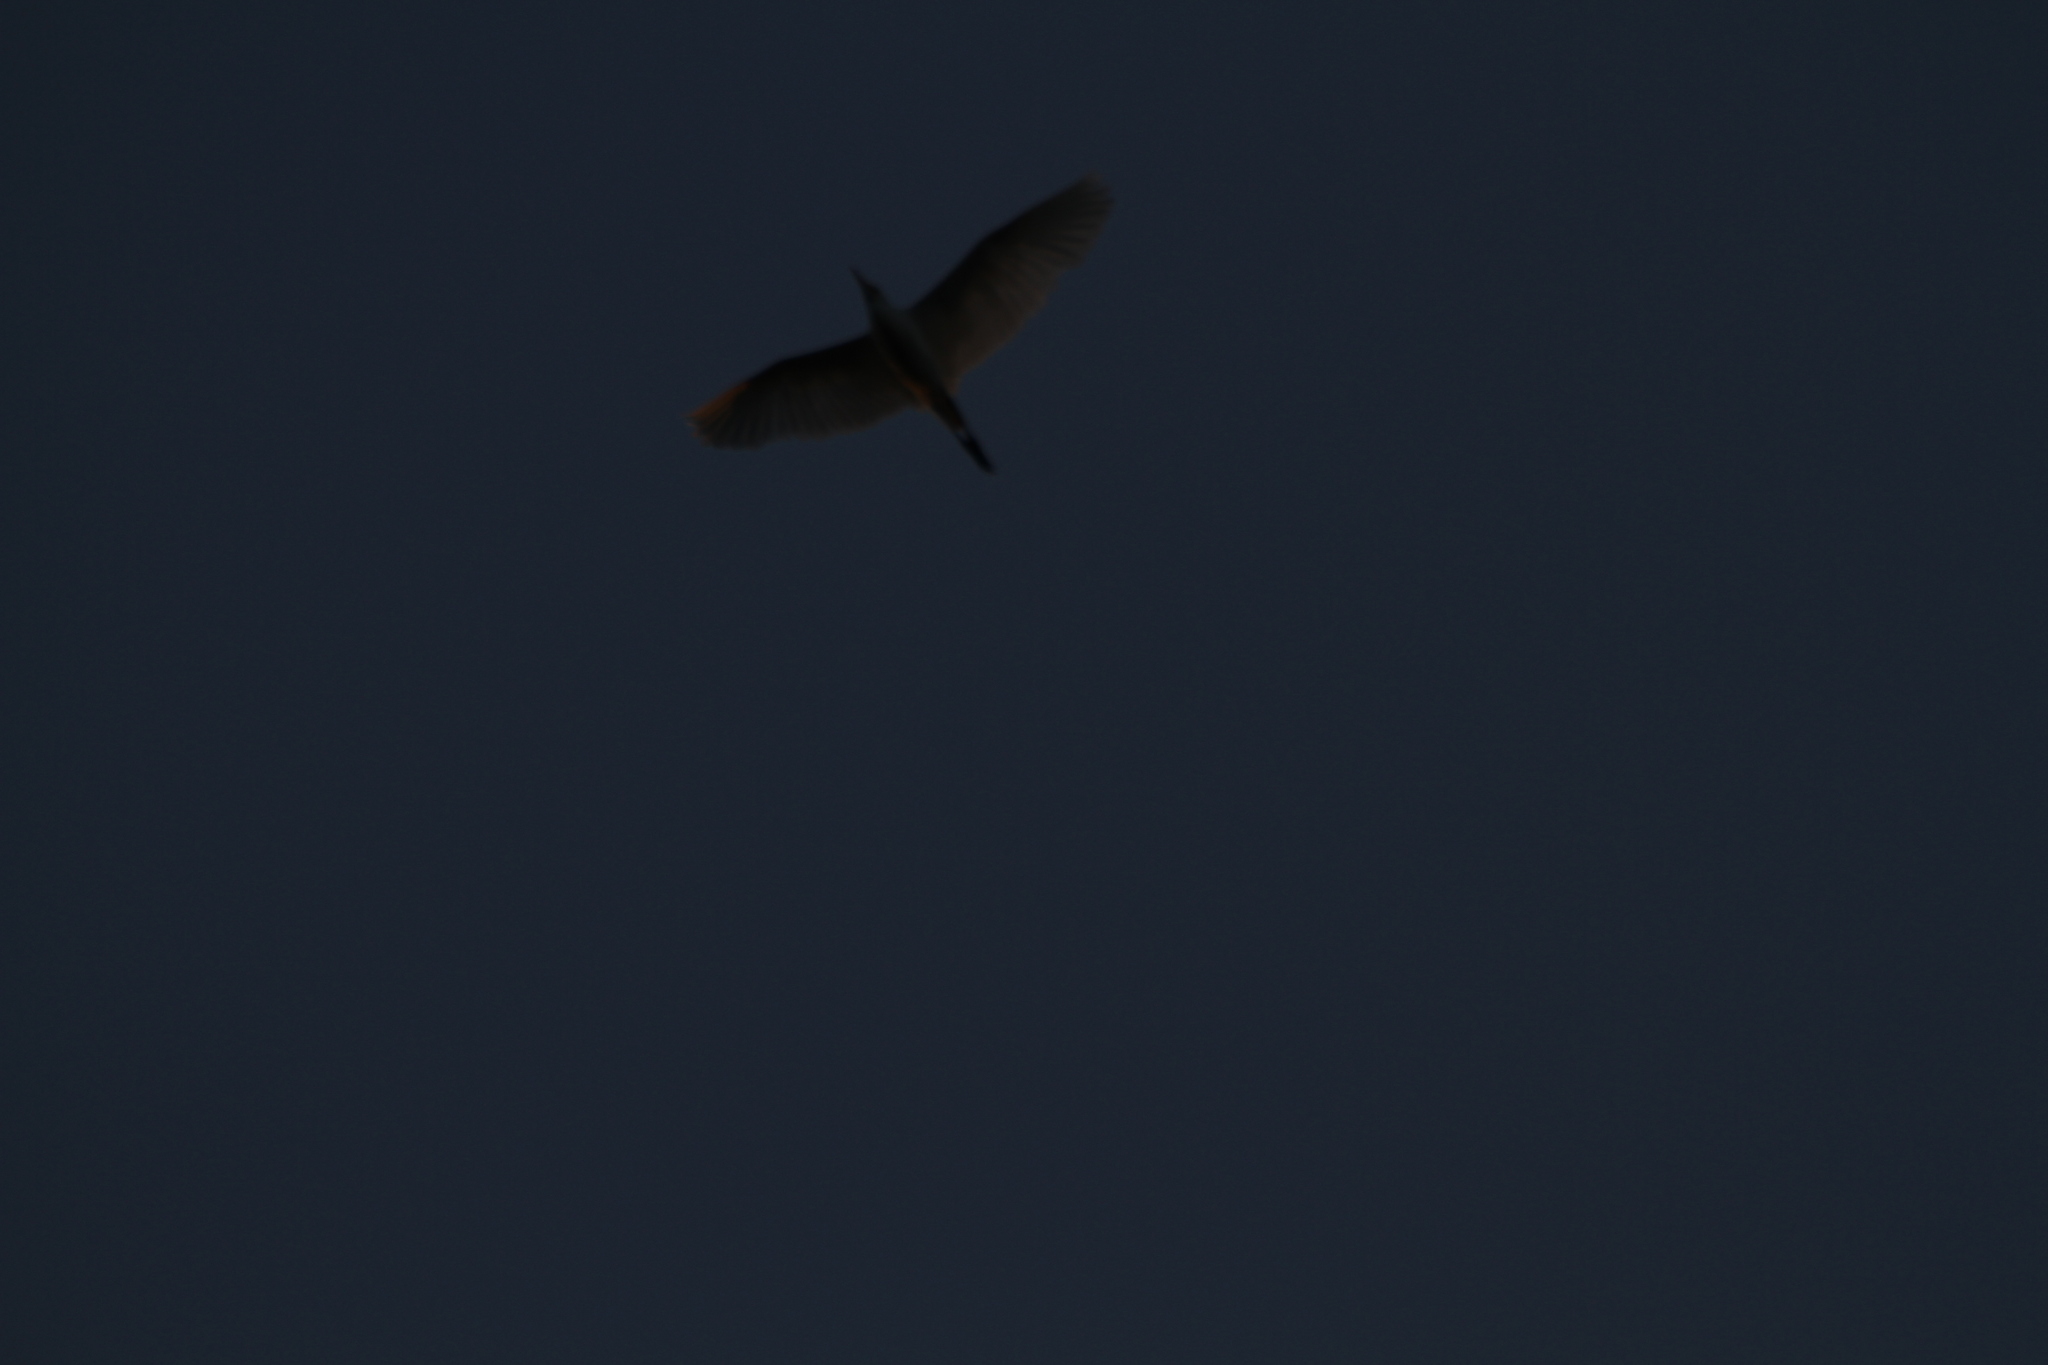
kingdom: Animalia
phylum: Chordata
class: Aves
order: Pelecaniformes
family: Ardeidae
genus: Bubulcus
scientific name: Bubulcus ibis
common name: Cattle egret
